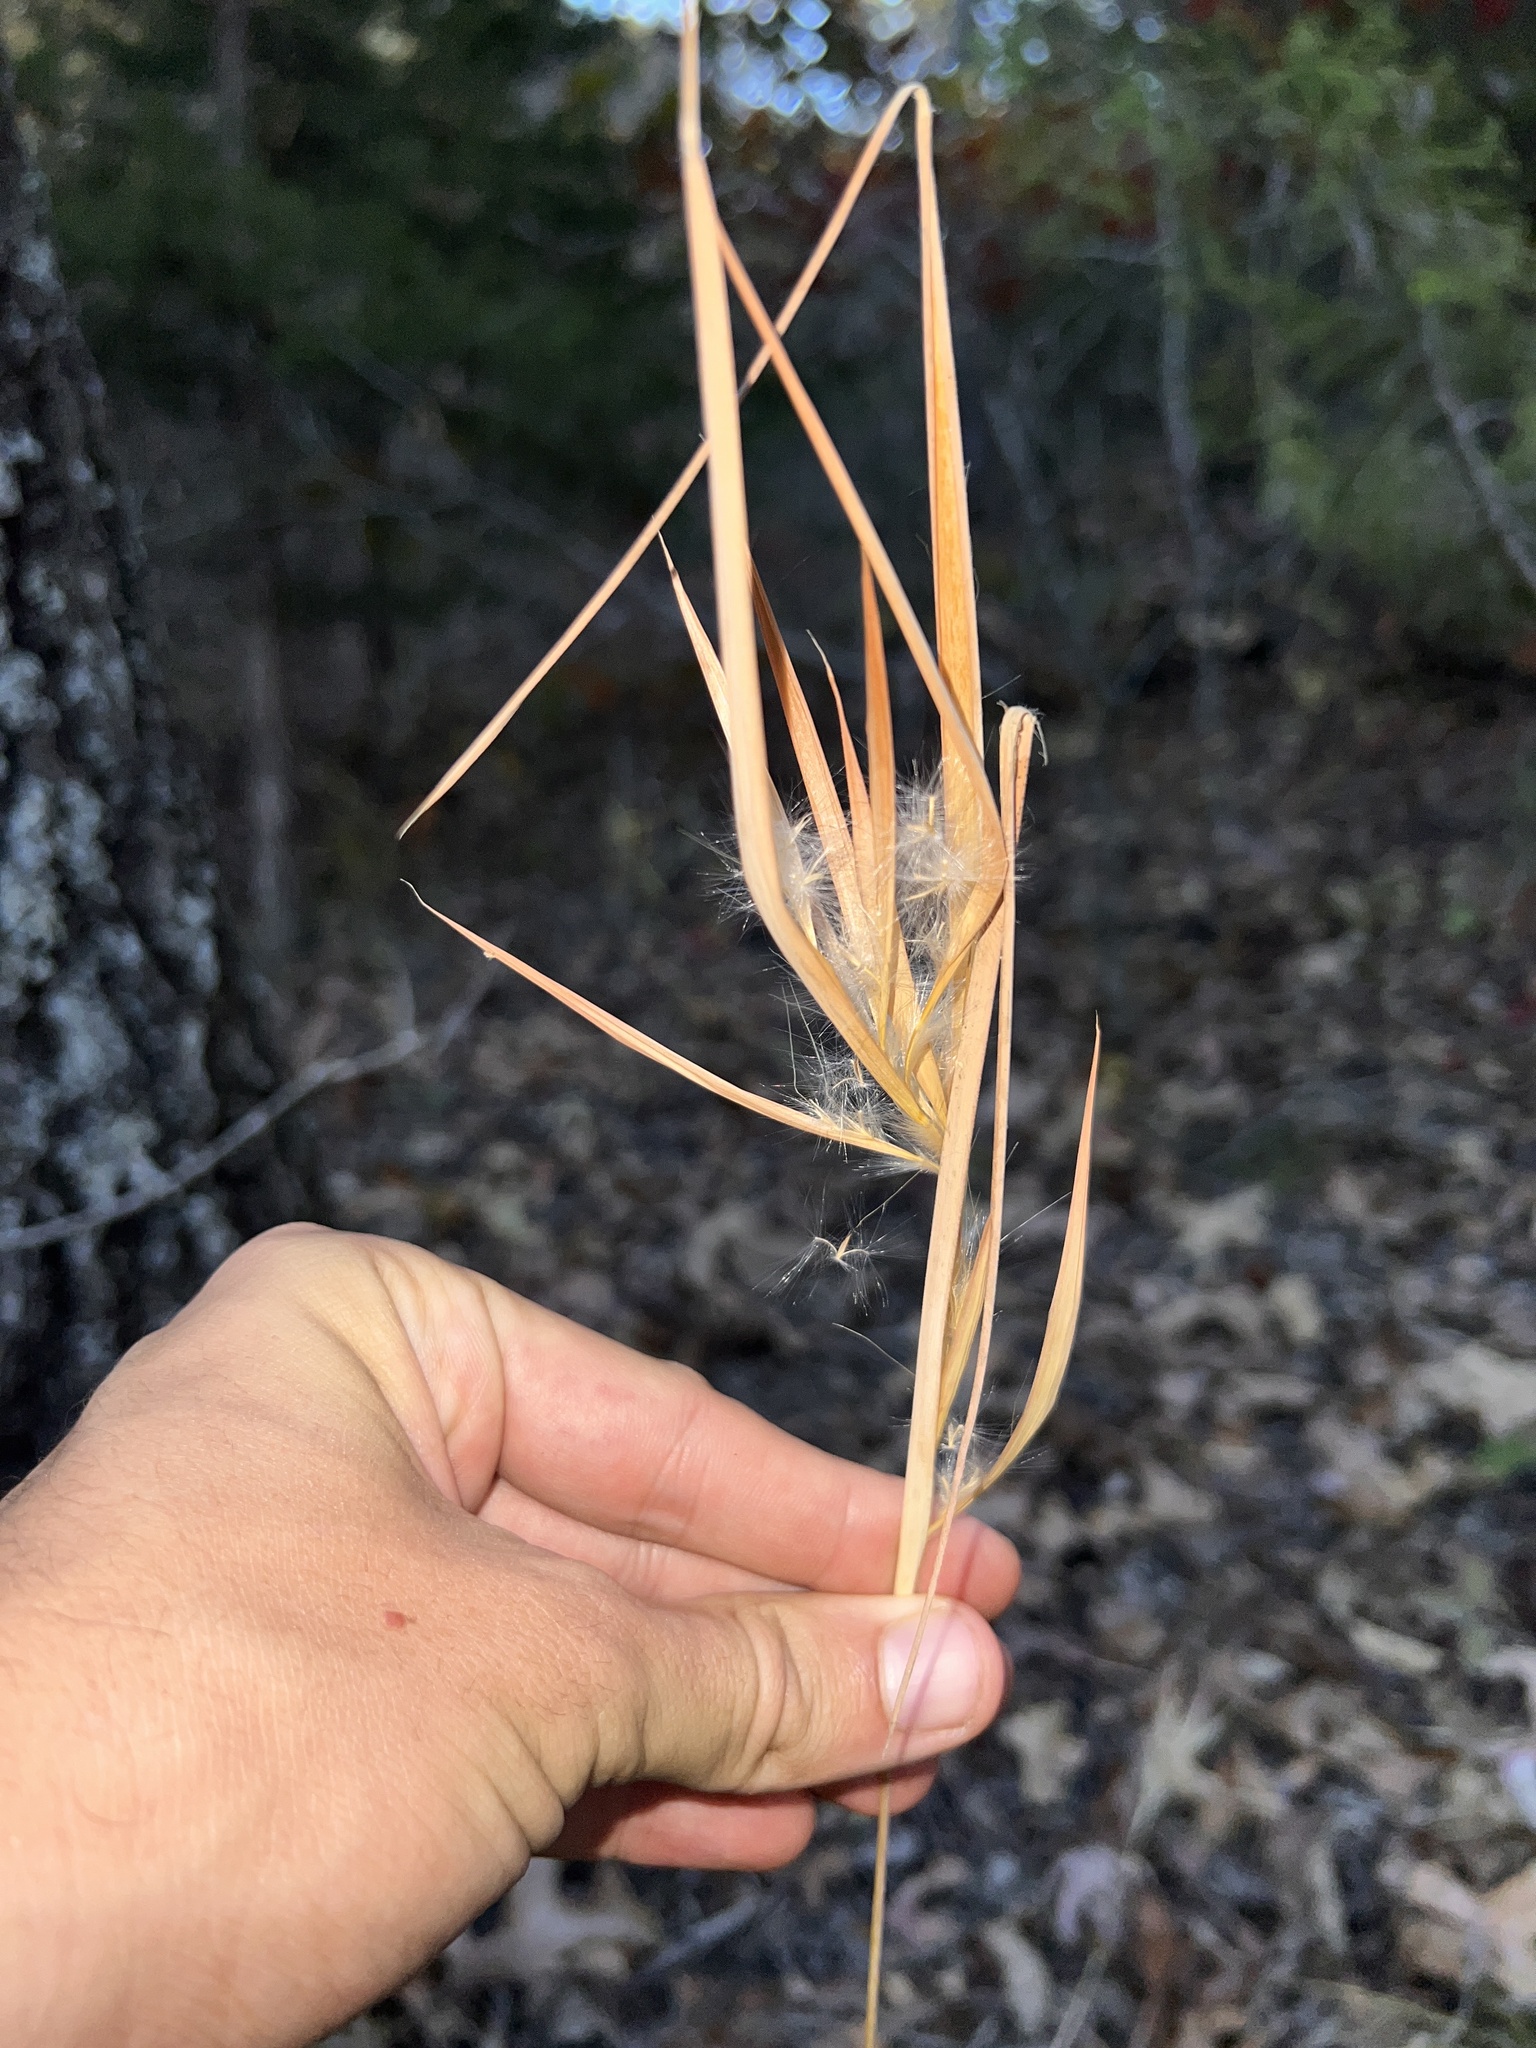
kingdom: Plantae
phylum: Tracheophyta
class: Liliopsida
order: Poales
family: Poaceae
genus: Andropogon
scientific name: Andropogon gyrans
